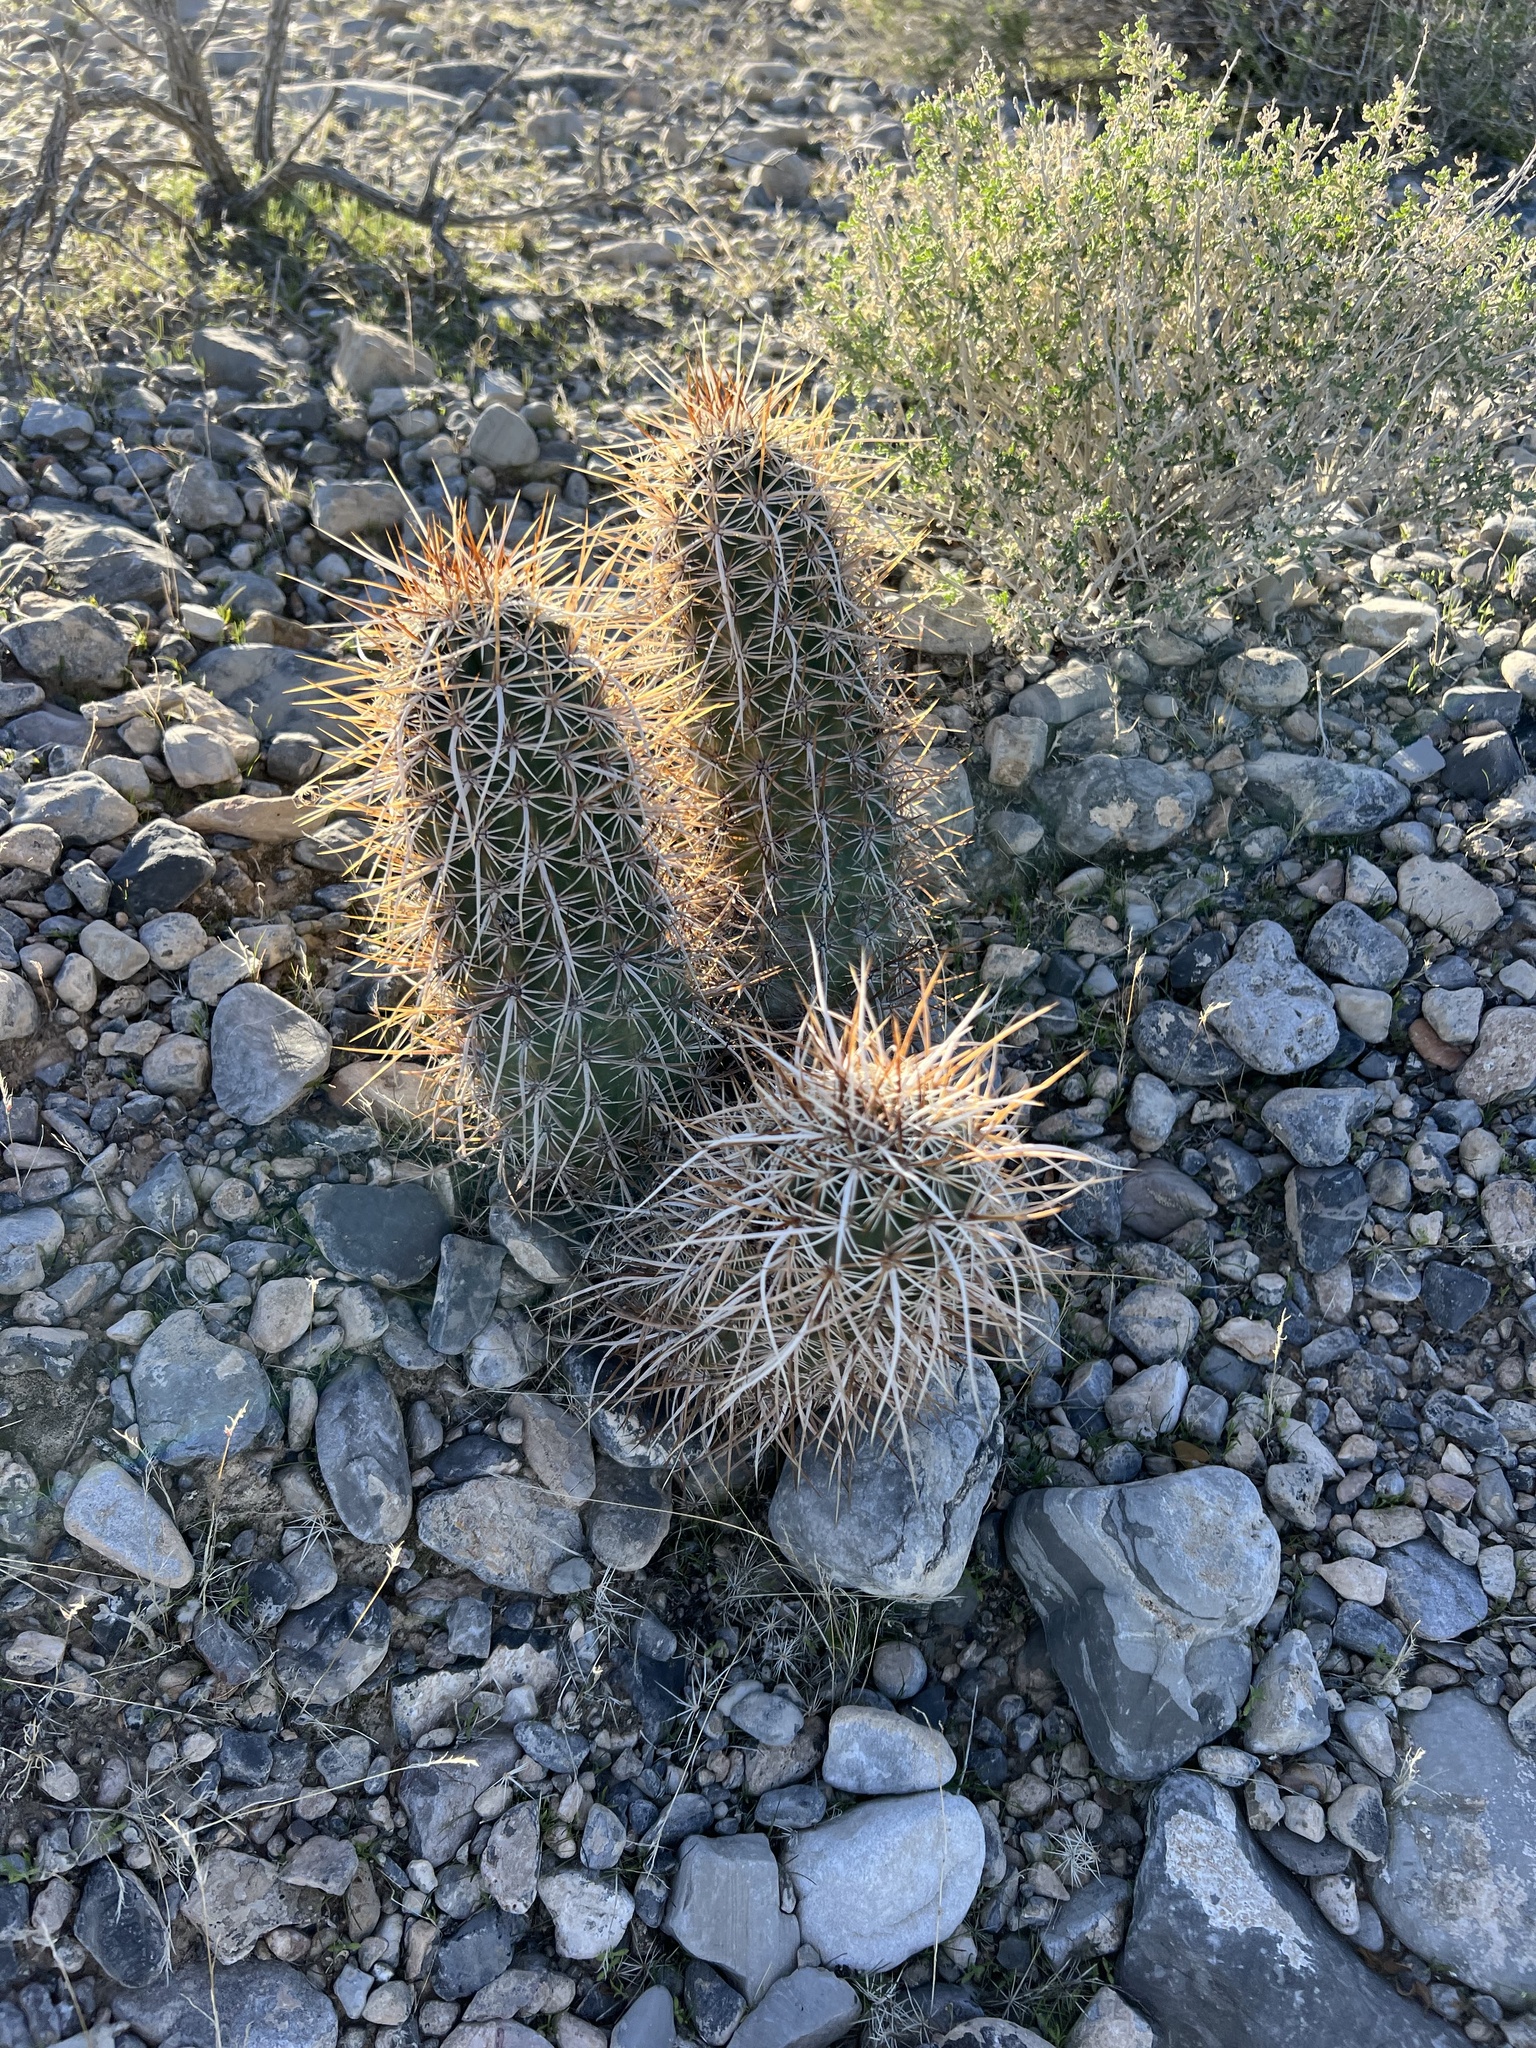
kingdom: Plantae
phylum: Tracheophyta
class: Magnoliopsida
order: Caryophyllales
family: Cactaceae
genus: Echinocereus
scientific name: Echinocereus engelmannii
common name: Engelmann's hedgehog cactus
